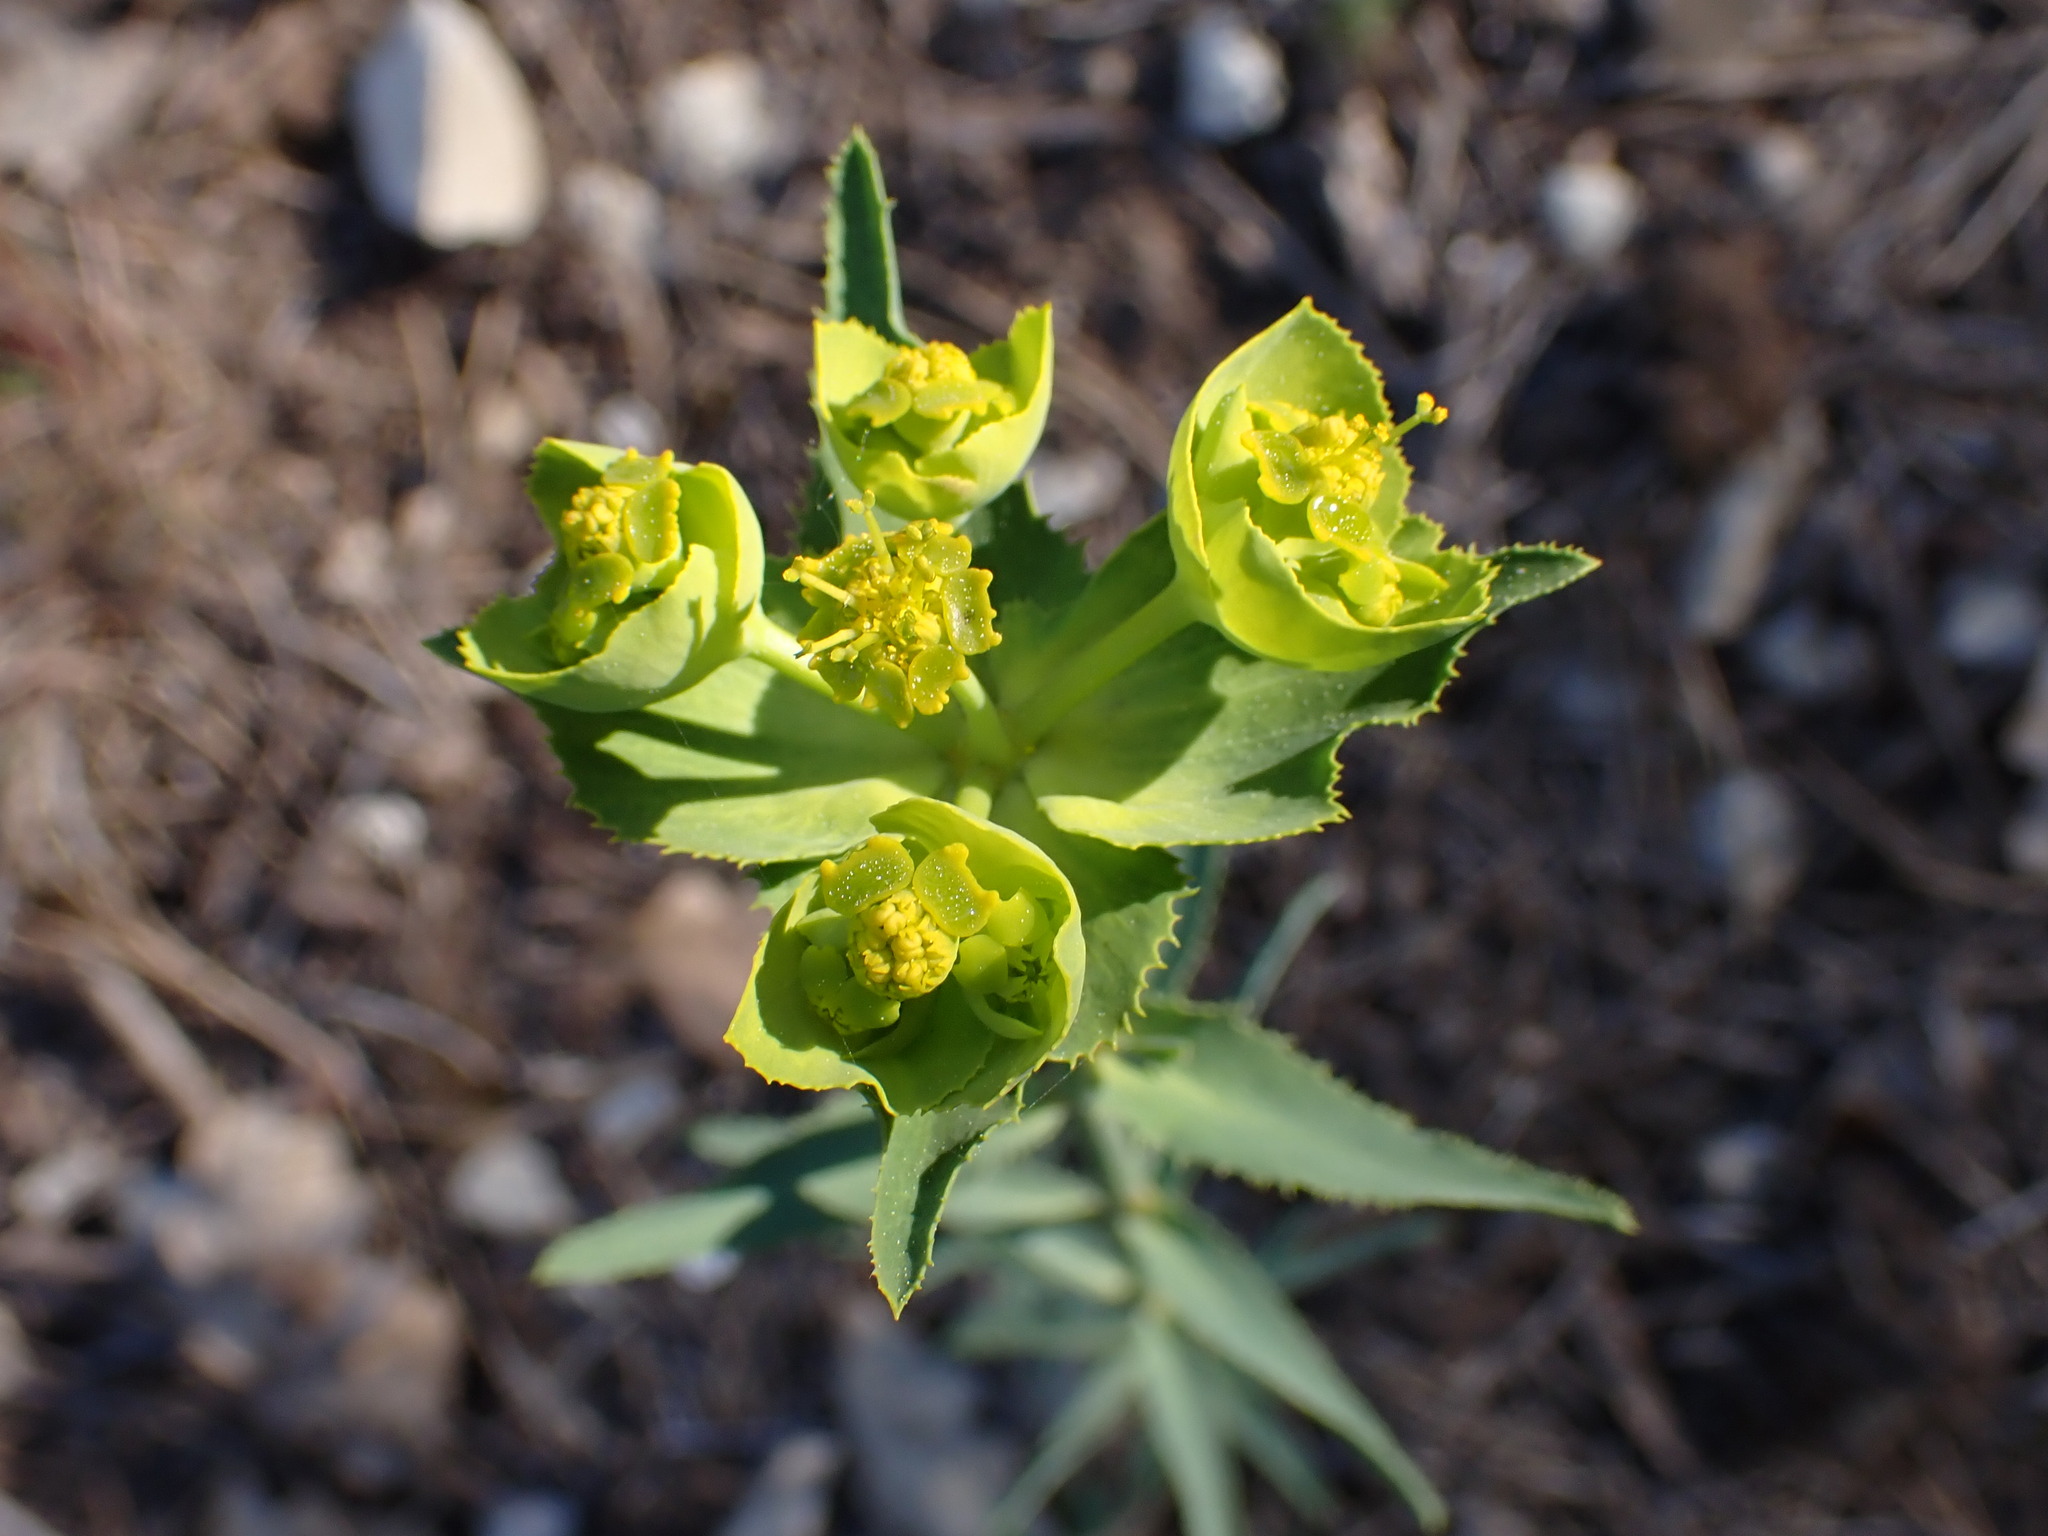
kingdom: Plantae
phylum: Tracheophyta
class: Magnoliopsida
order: Malpighiales
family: Euphorbiaceae
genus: Euphorbia
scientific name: Euphorbia serrata
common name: Serrate spurge
